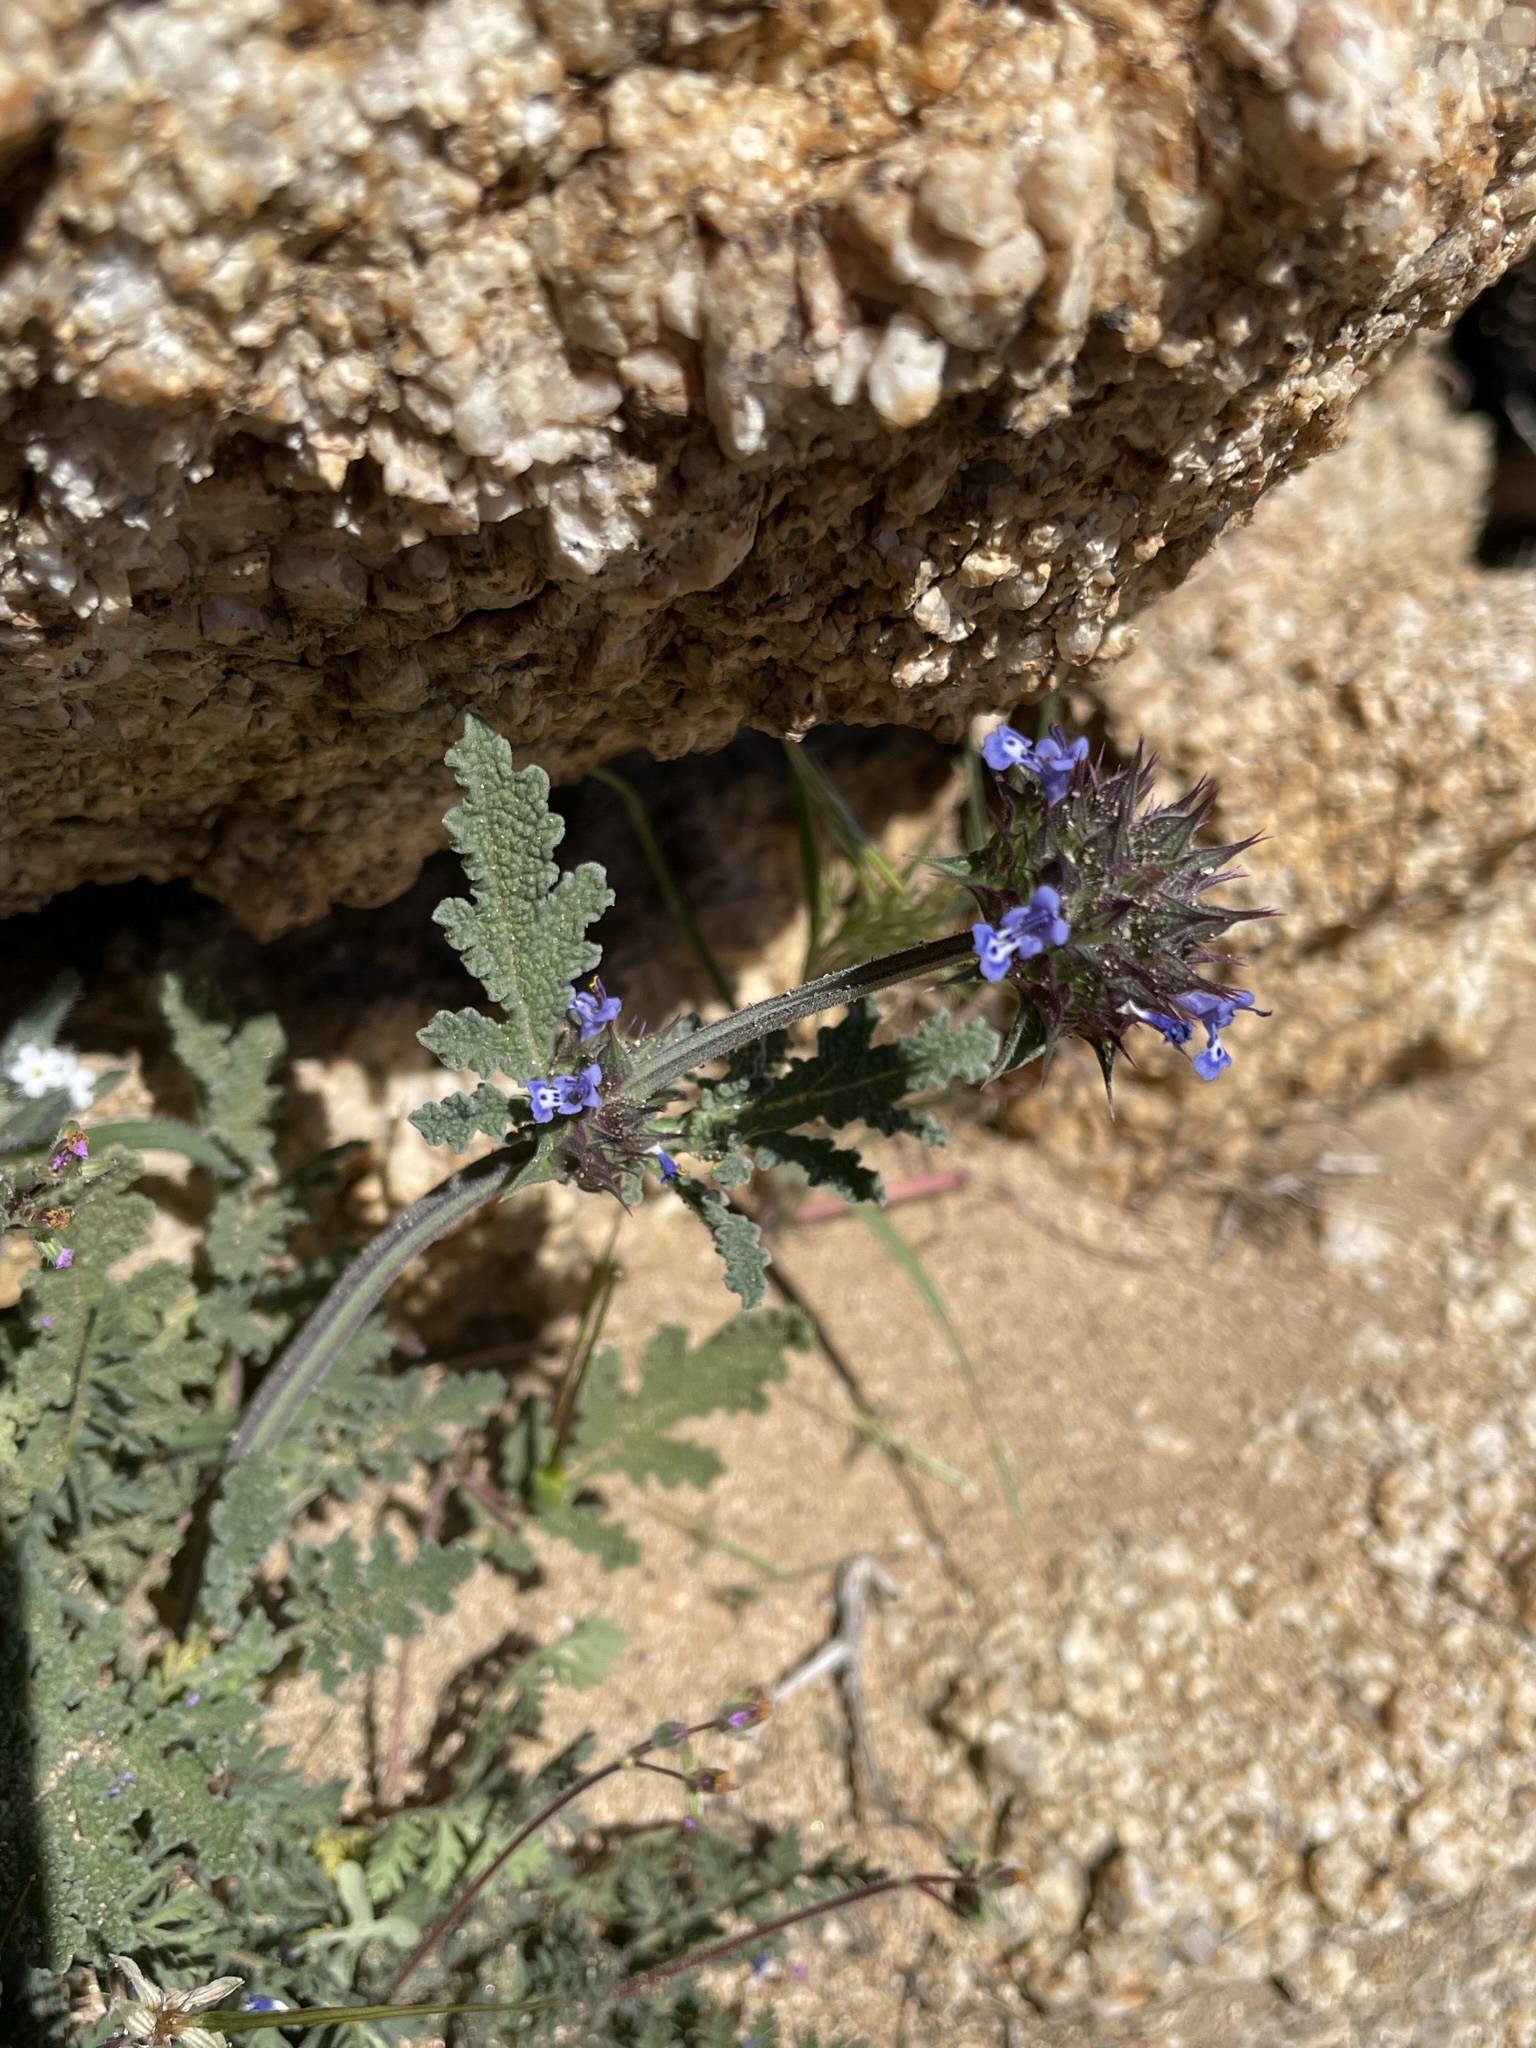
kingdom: Plantae
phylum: Tracheophyta
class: Magnoliopsida
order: Lamiales
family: Lamiaceae
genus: Salvia
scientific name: Salvia columbariae
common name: Chia
